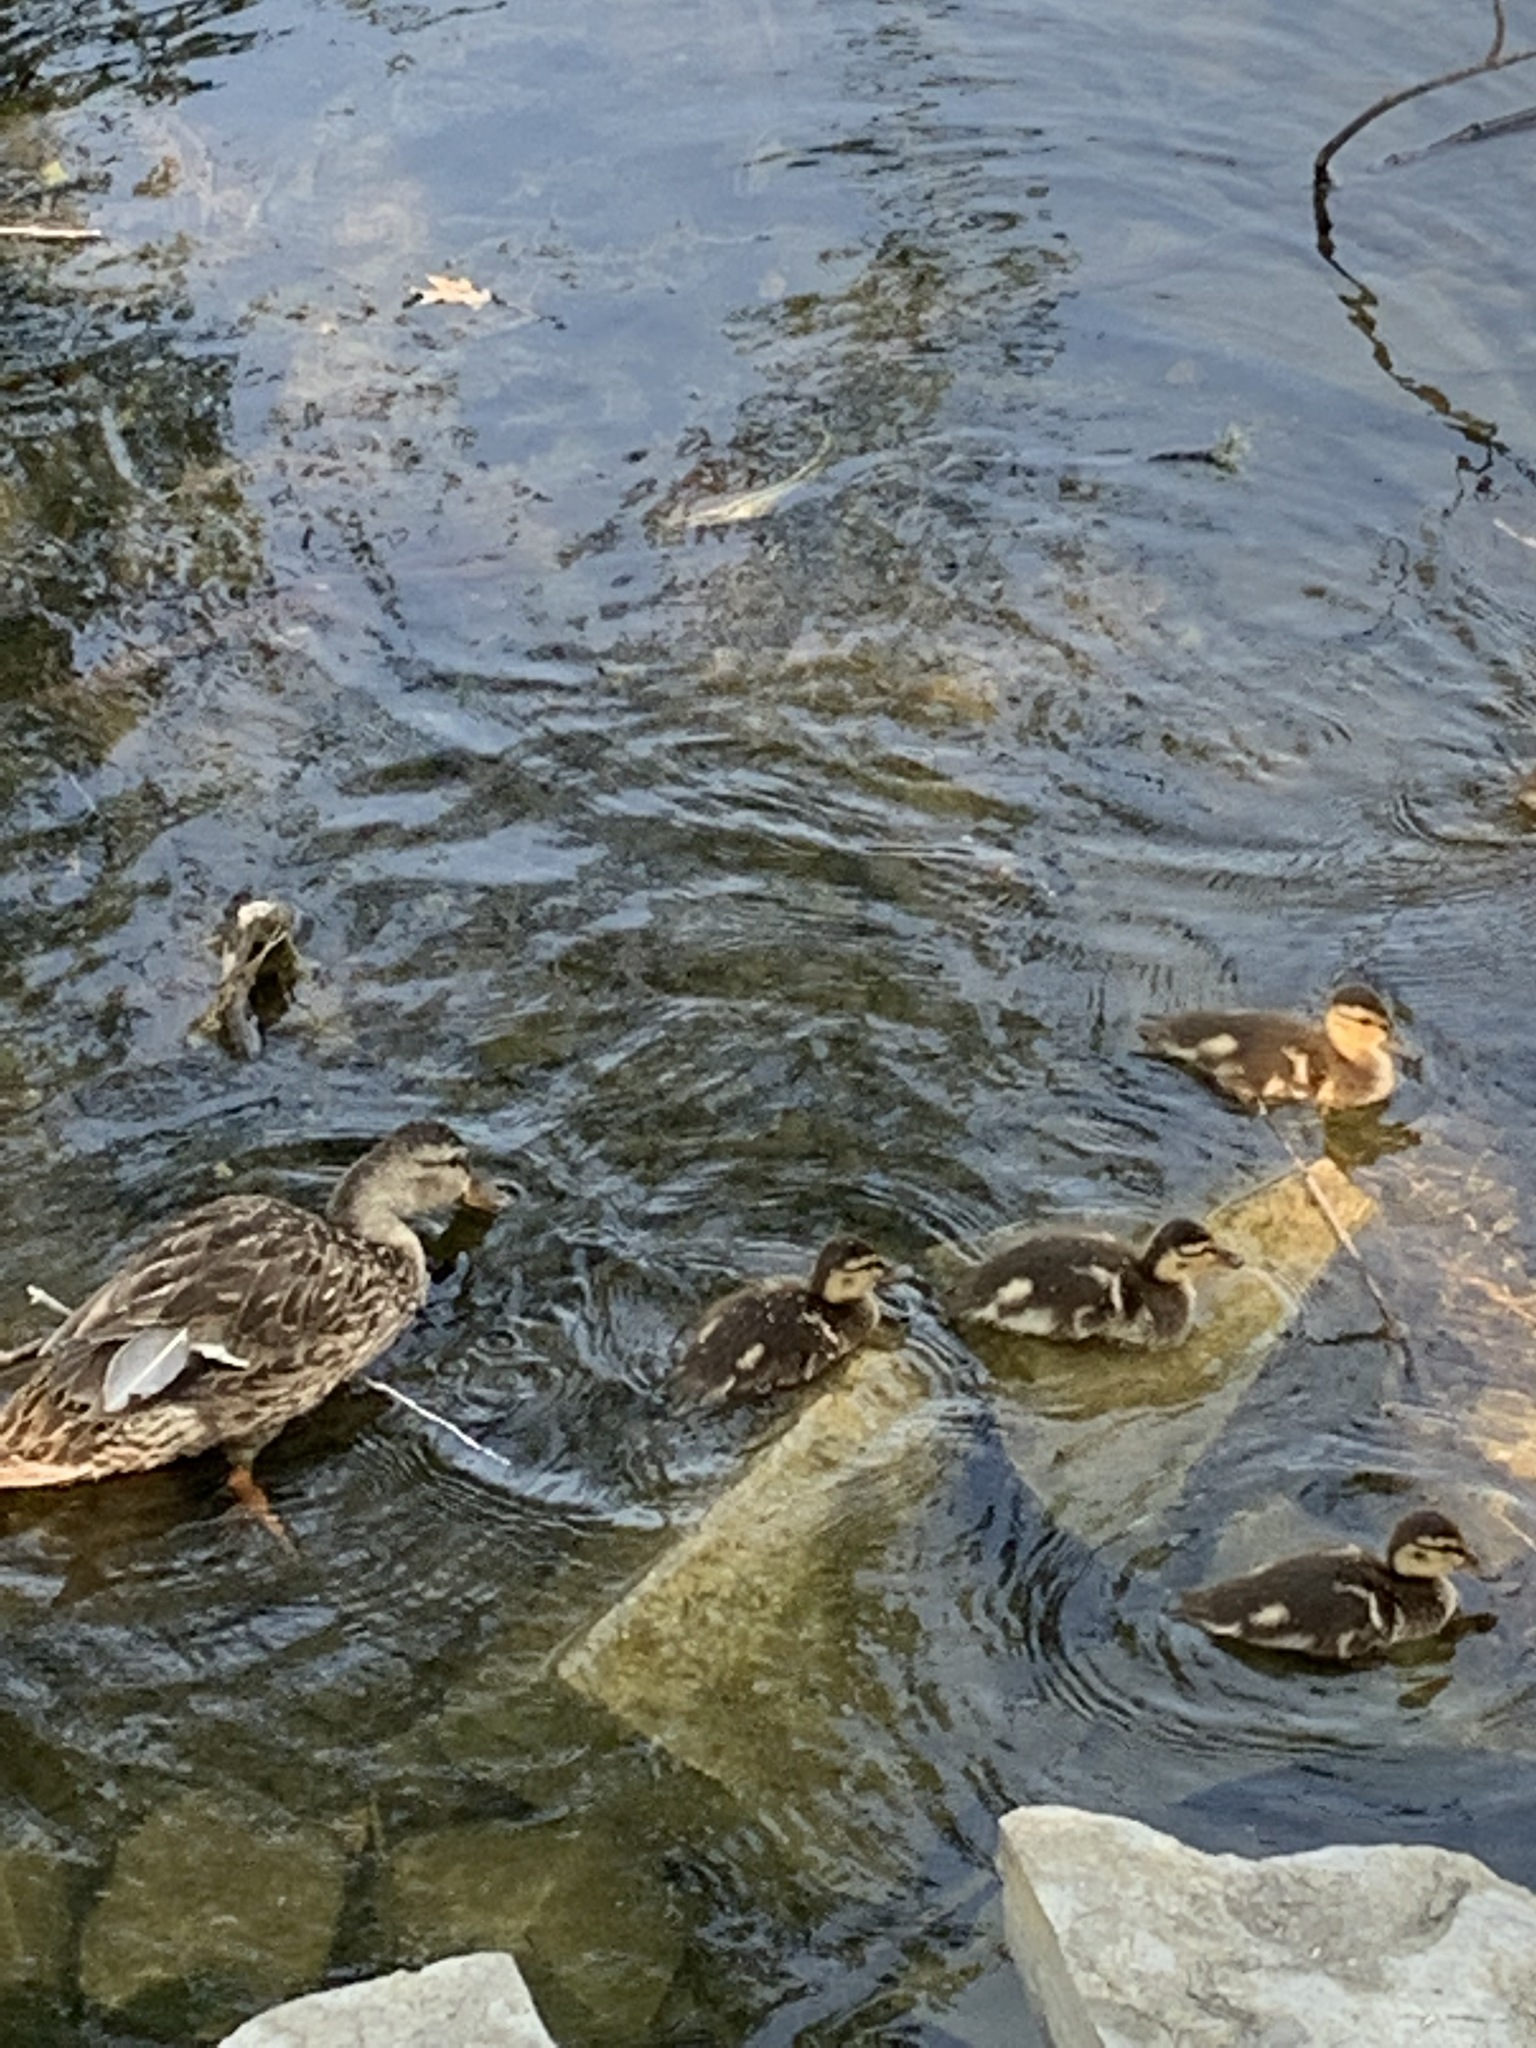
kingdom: Animalia
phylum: Chordata
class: Aves
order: Anseriformes
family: Anatidae
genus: Anas
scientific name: Anas platyrhynchos
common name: Mallard
